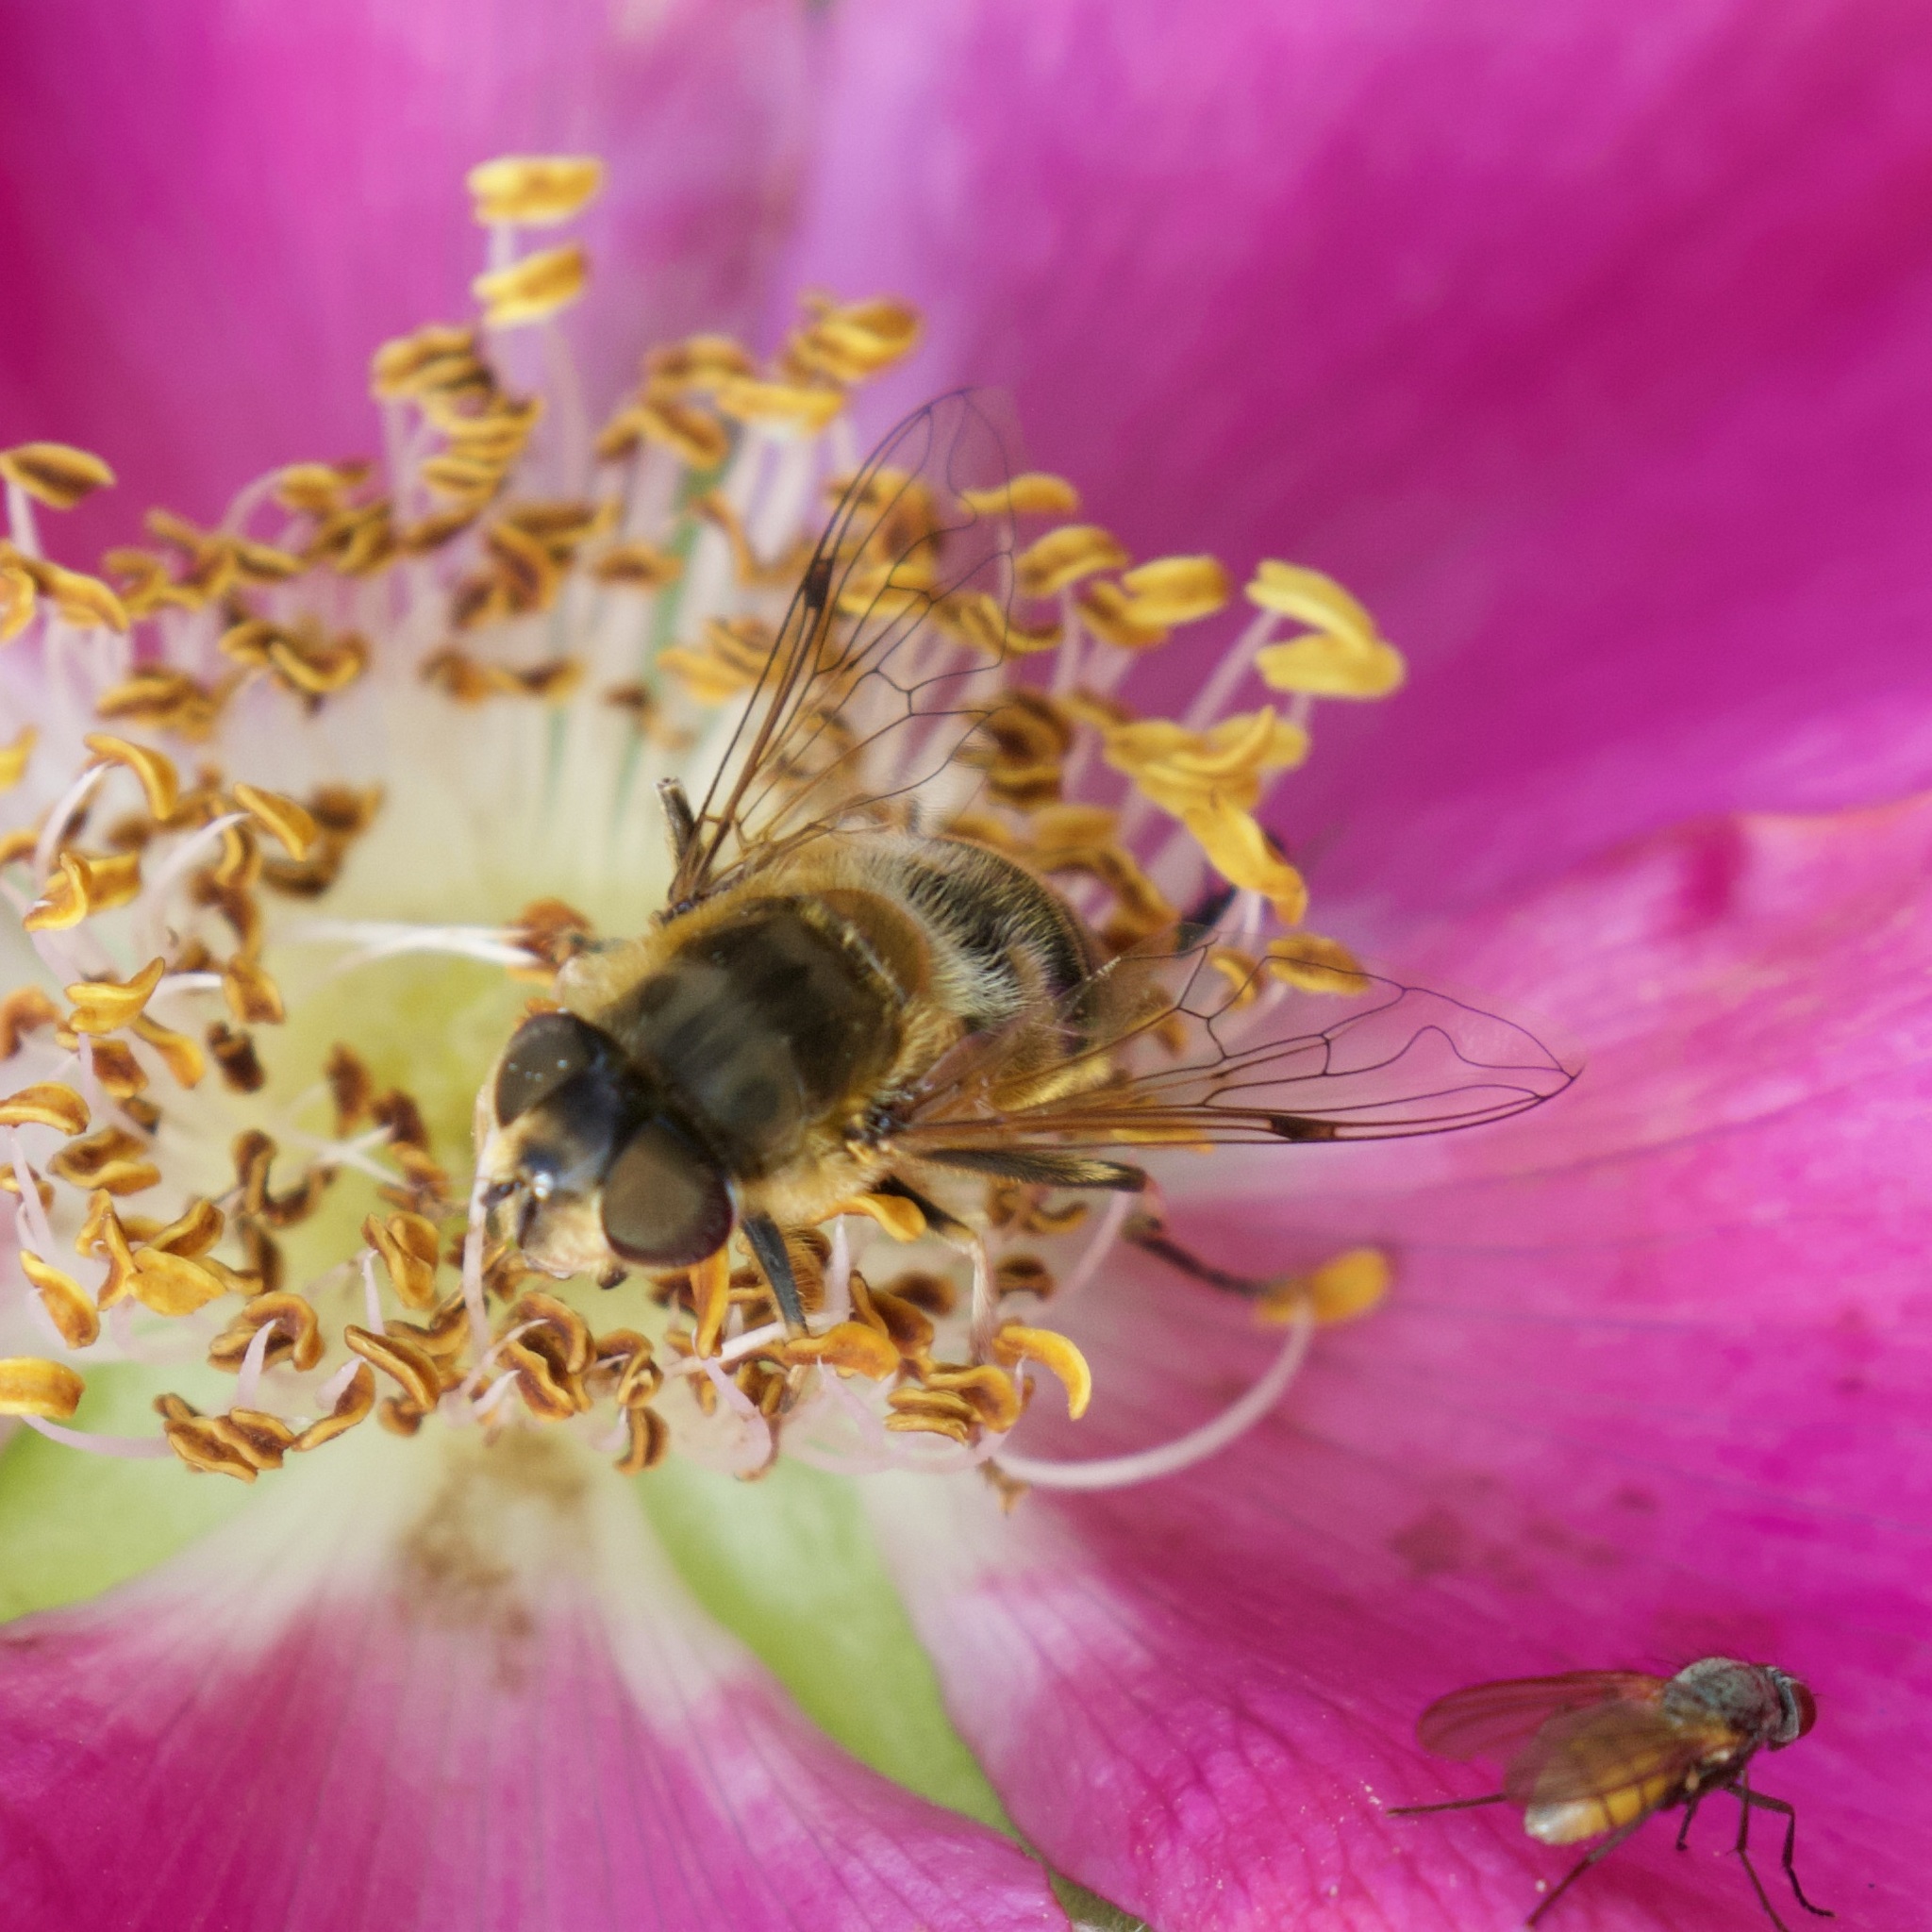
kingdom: Animalia
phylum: Arthropoda
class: Insecta
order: Diptera
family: Syrphidae
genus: Eristalis
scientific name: Eristalis
